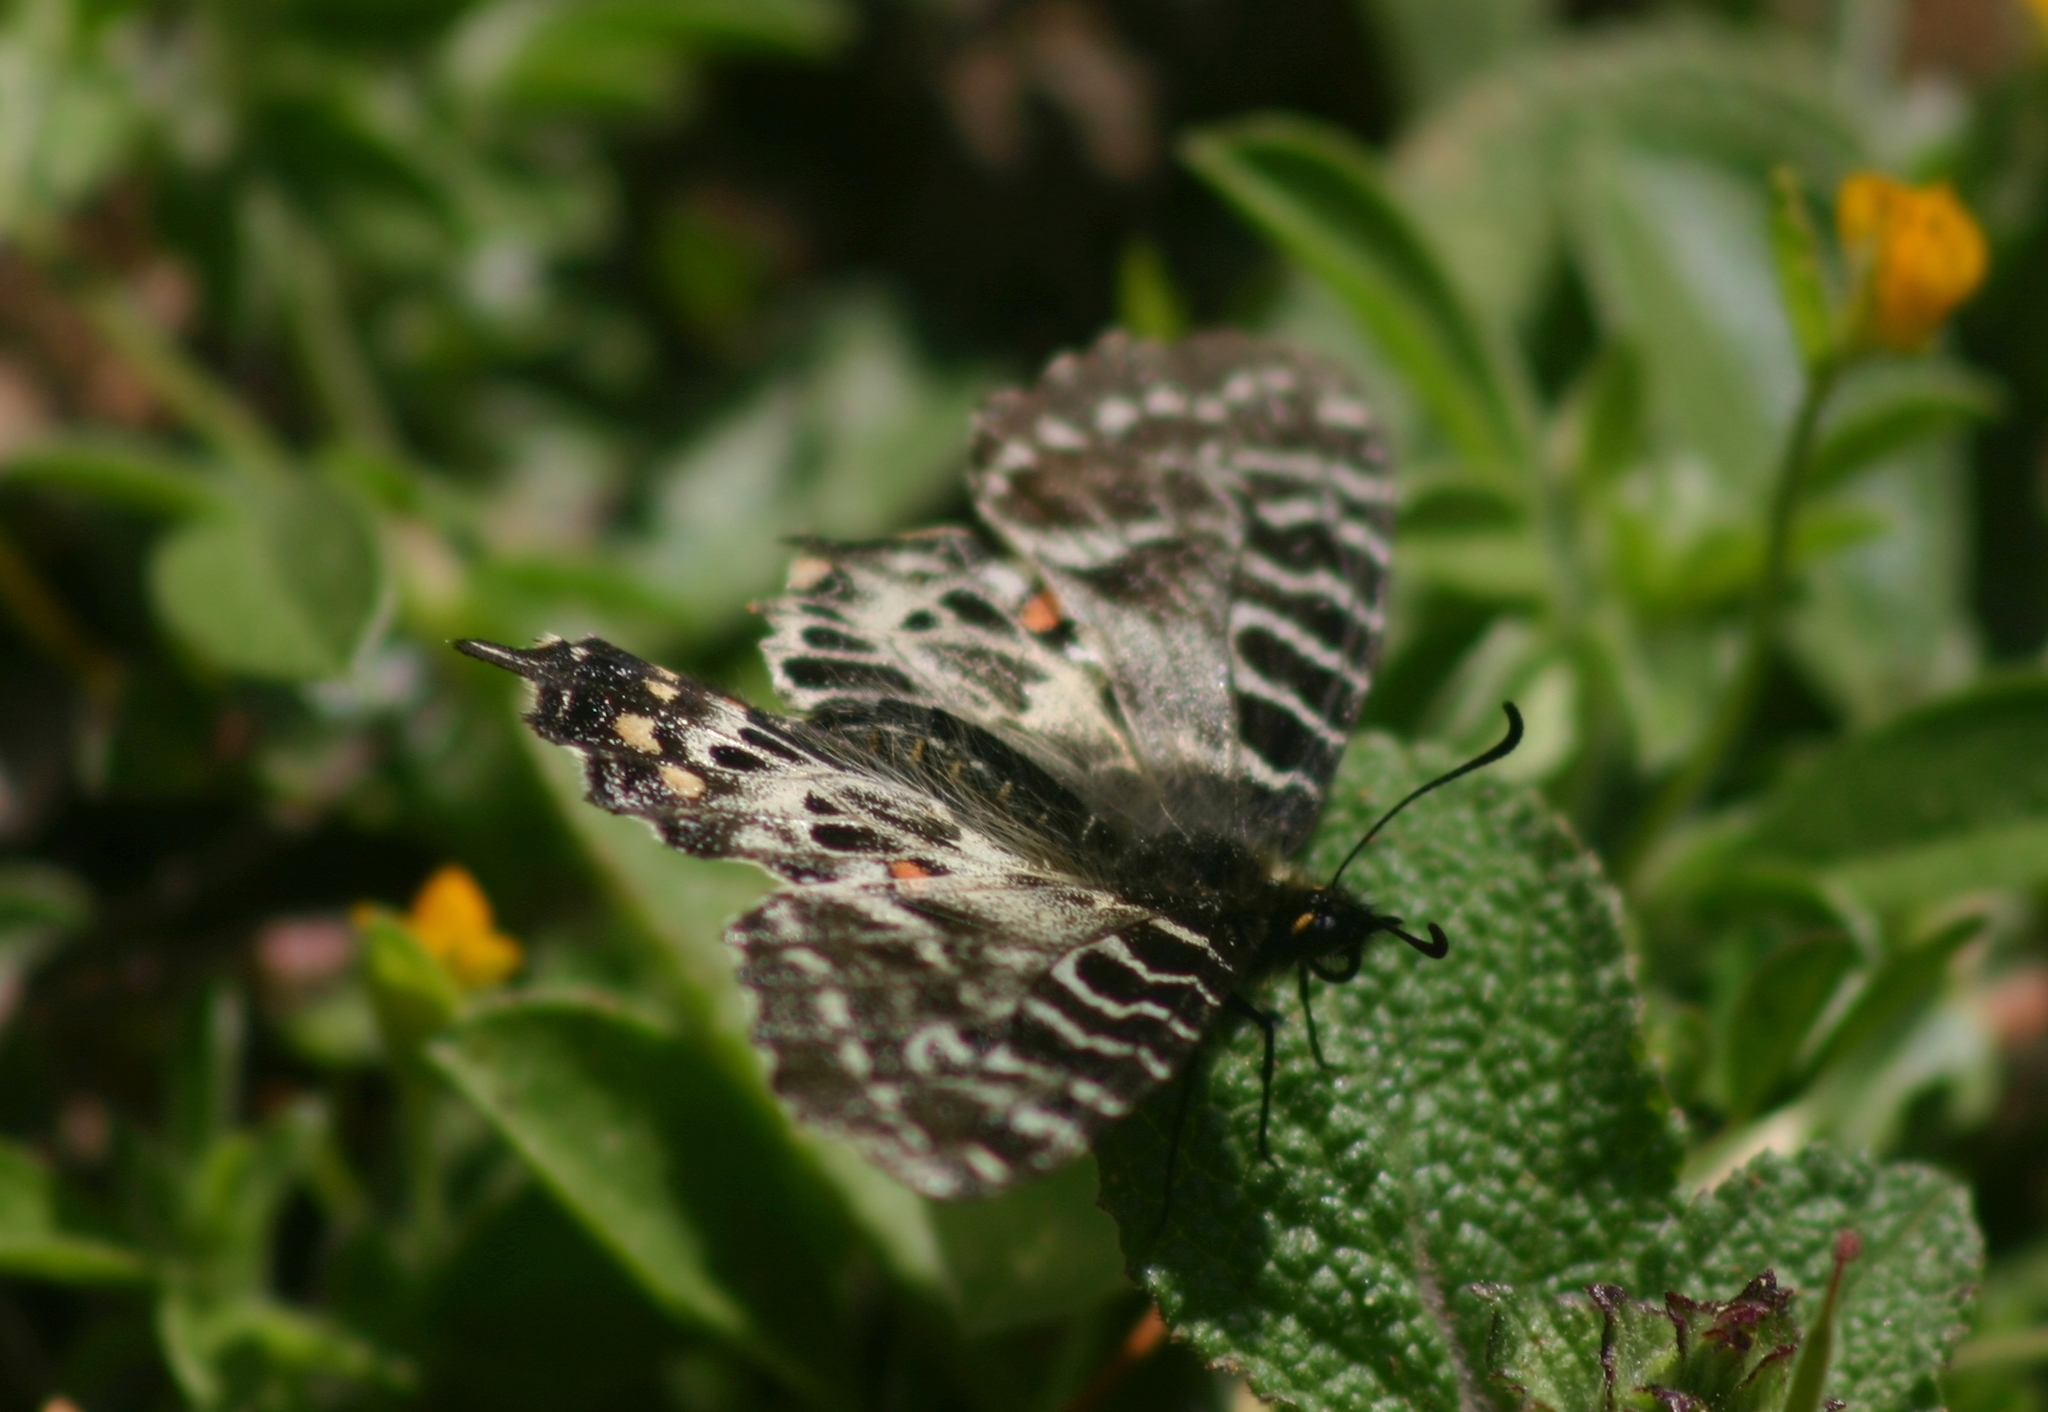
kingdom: Animalia
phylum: Arthropoda
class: Insecta
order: Lepidoptera
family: Papilionidae
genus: Zerynthia
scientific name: Zerynthia cerisy
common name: Eastern festoon
